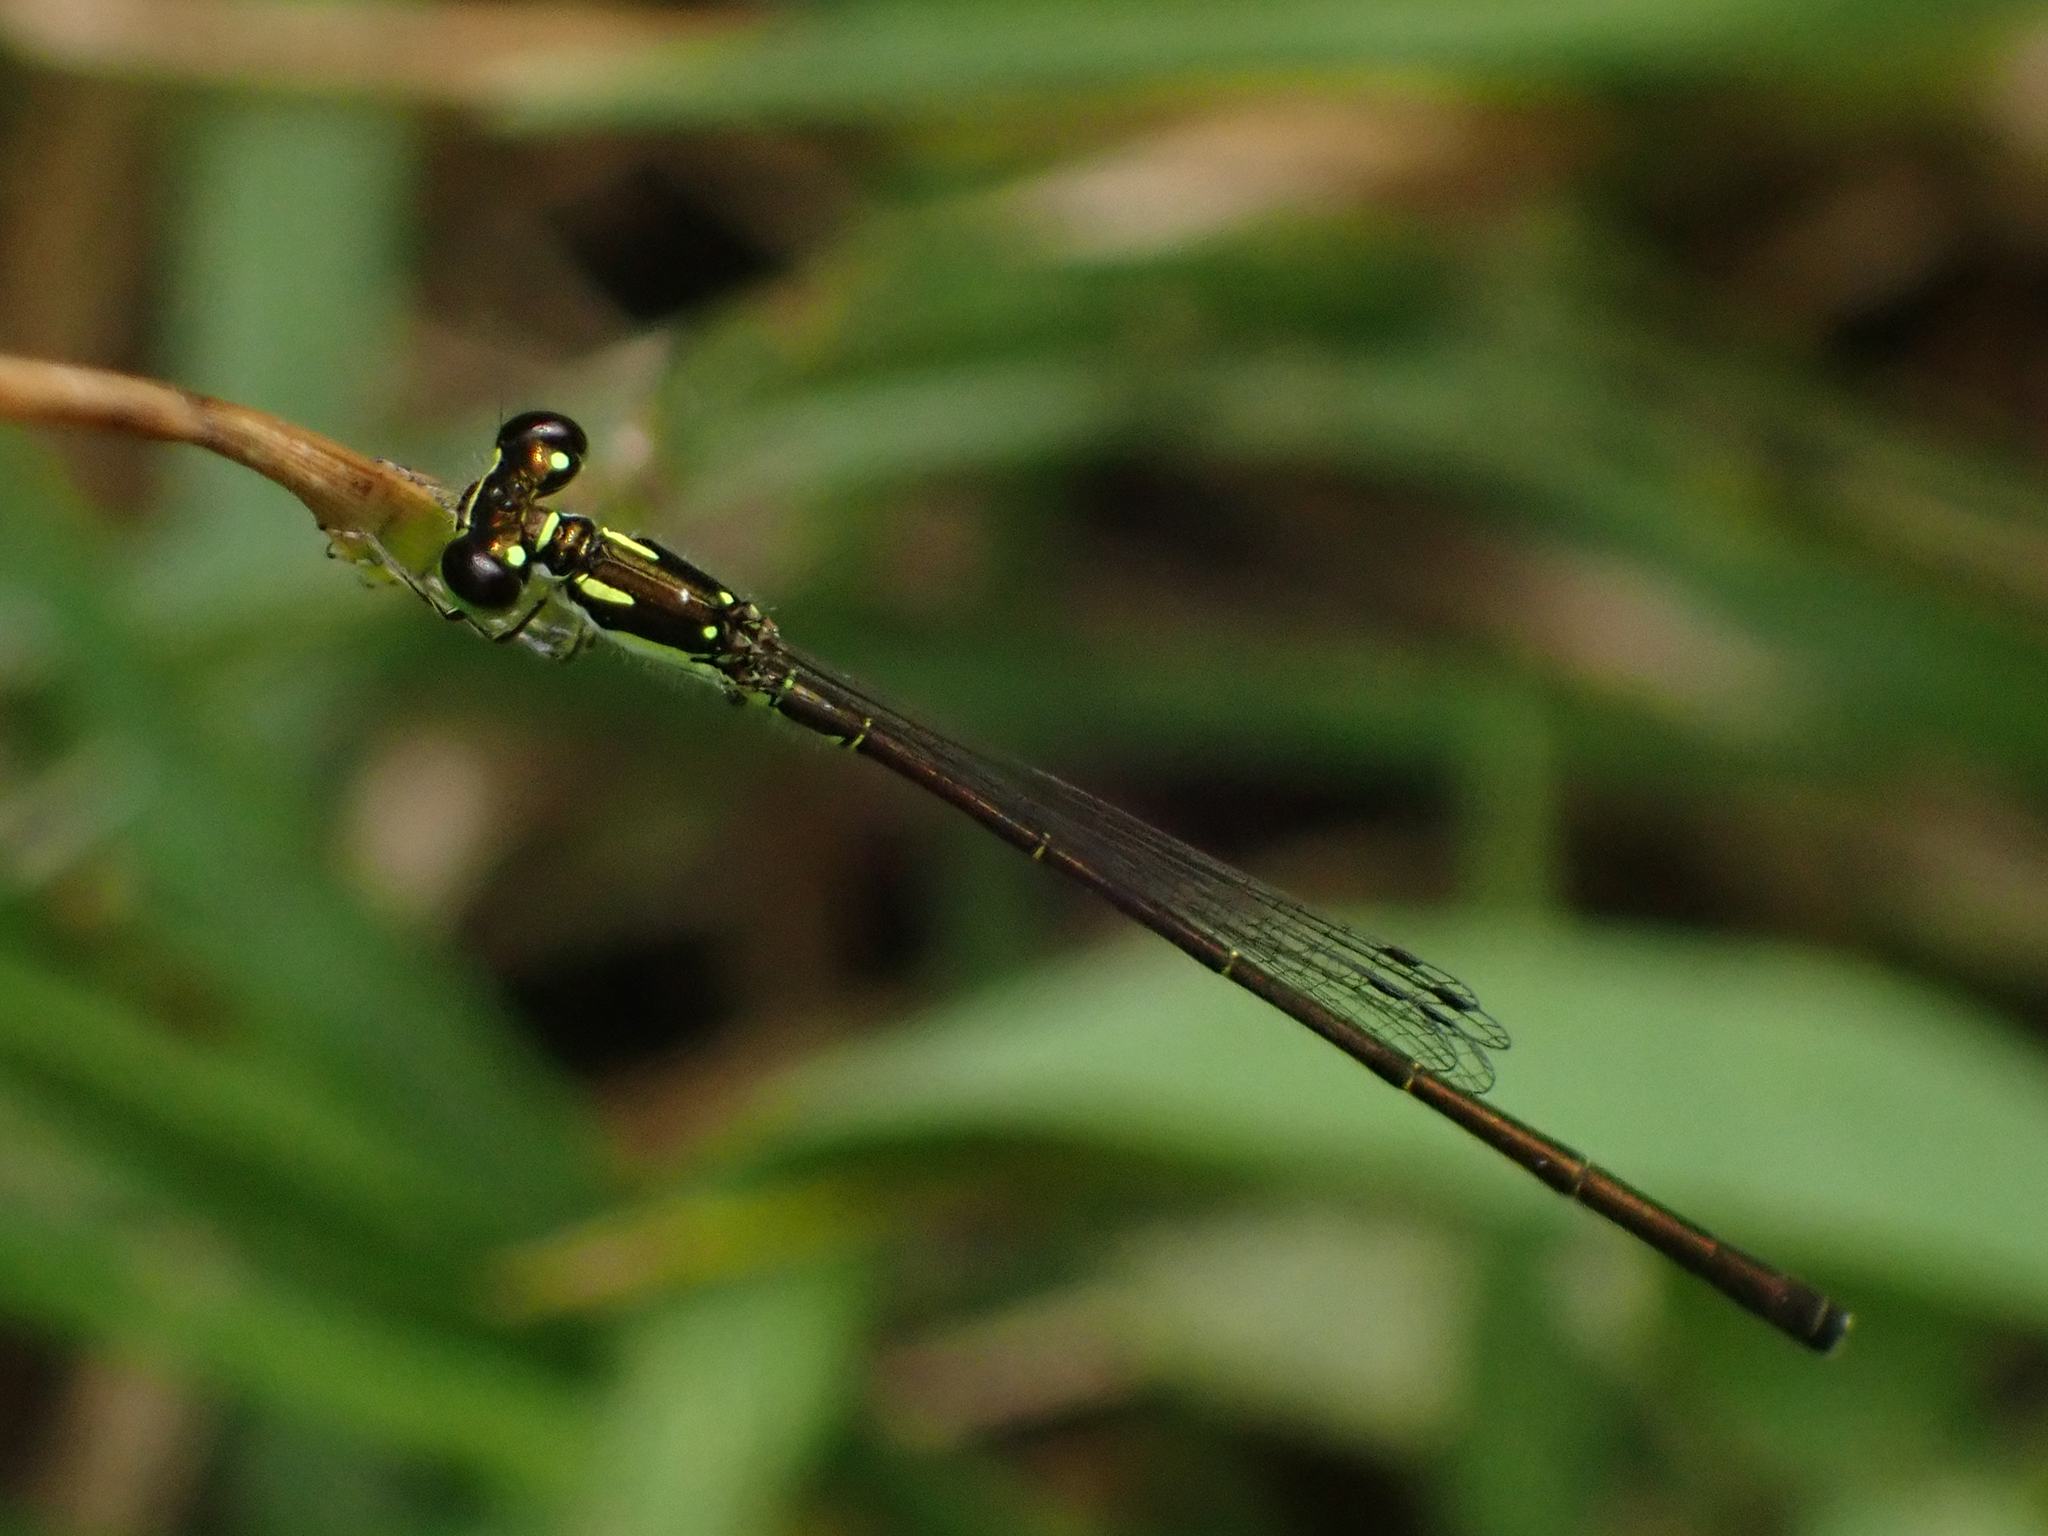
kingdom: Animalia
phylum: Arthropoda
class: Insecta
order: Odonata
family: Coenagrionidae
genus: Ischnura
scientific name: Ischnura posita
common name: Fragile forktail
